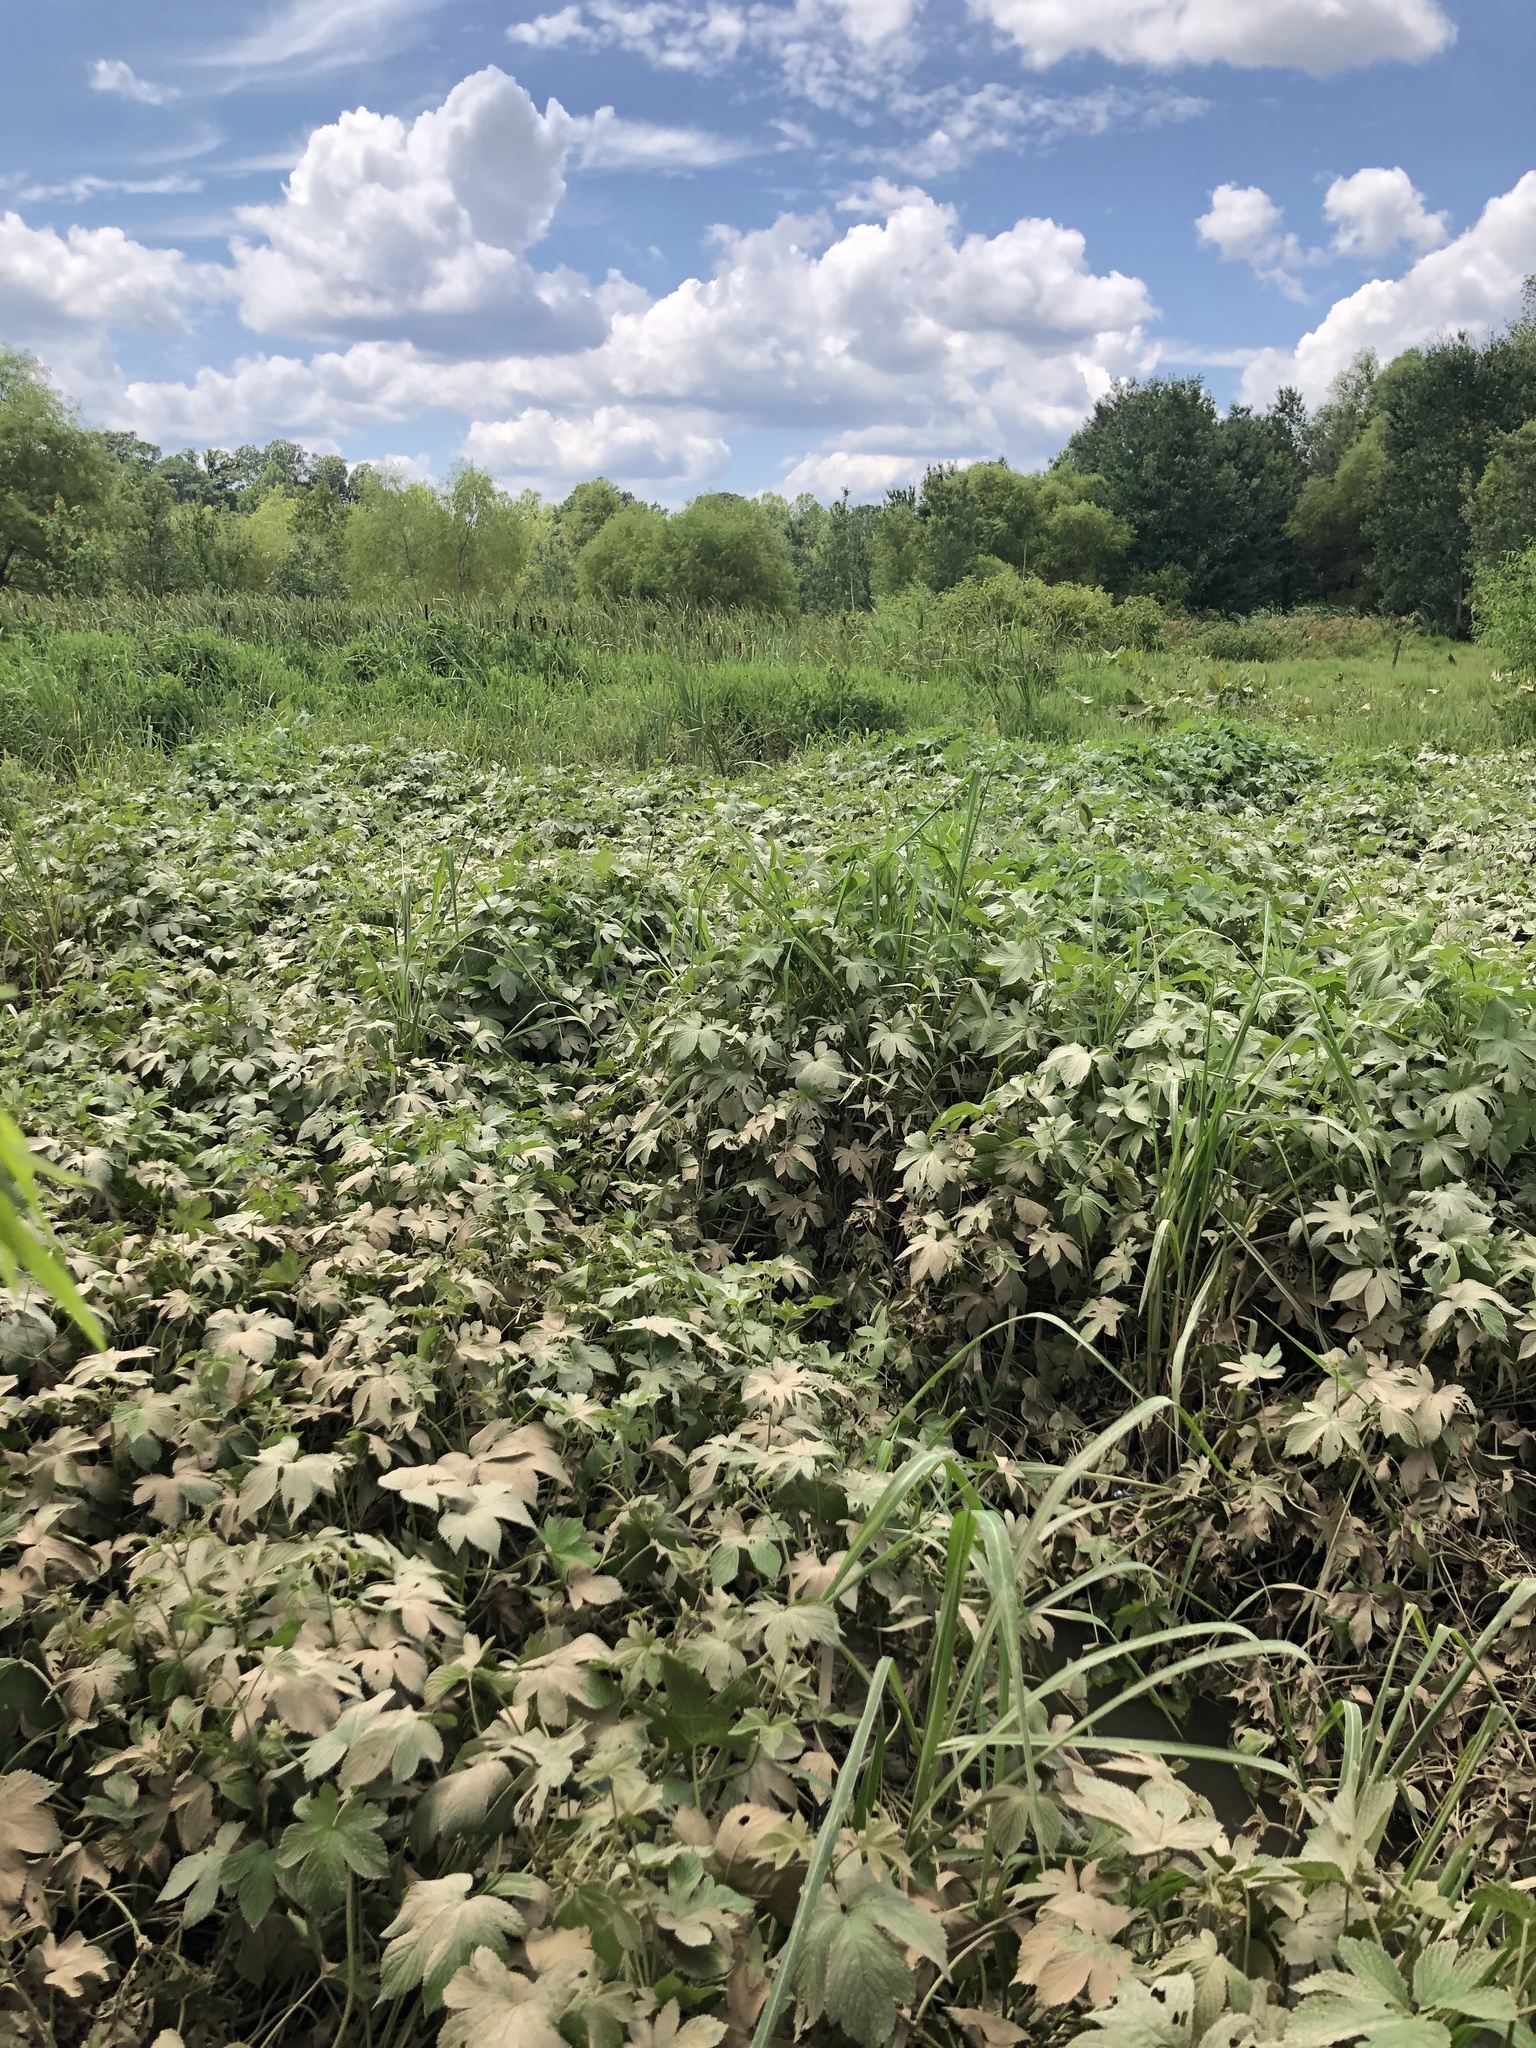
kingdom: Plantae
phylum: Tracheophyta
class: Magnoliopsida
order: Rosales
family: Cannabaceae
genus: Humulus
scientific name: Humulus scandens
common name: Japanese hop
